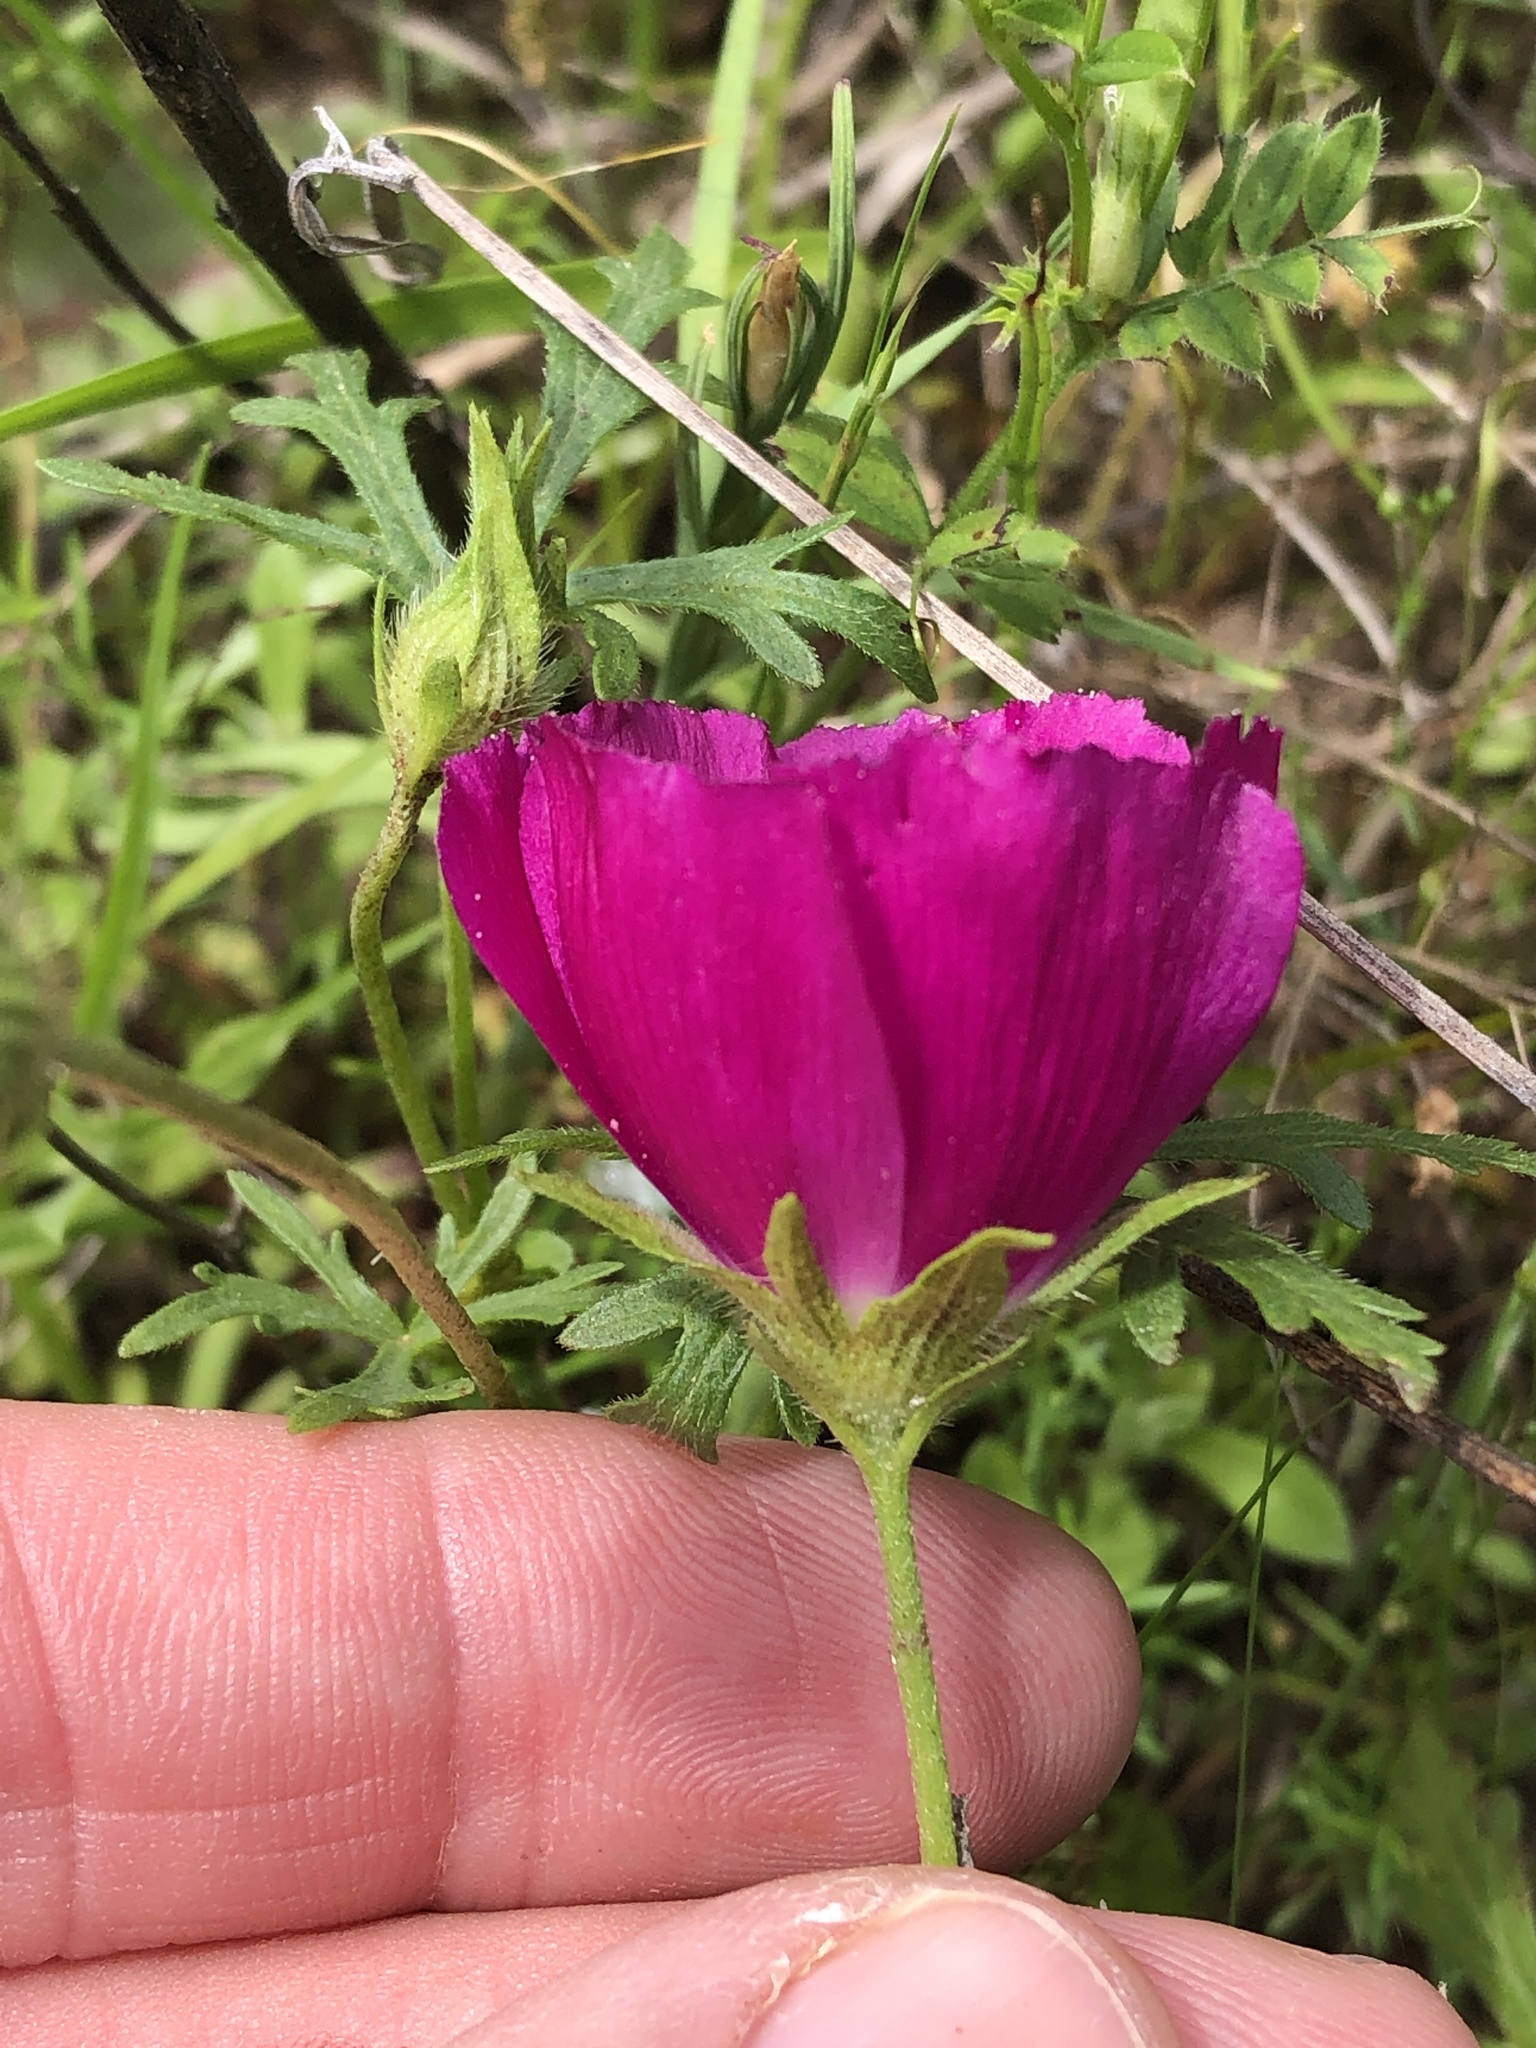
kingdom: Plantae
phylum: Tracheophyta
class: Magnoliopsida
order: Malvales
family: Malvaceae
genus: Callirhoe
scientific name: Callirhoe involucrata
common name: Purple poppy-mallow
